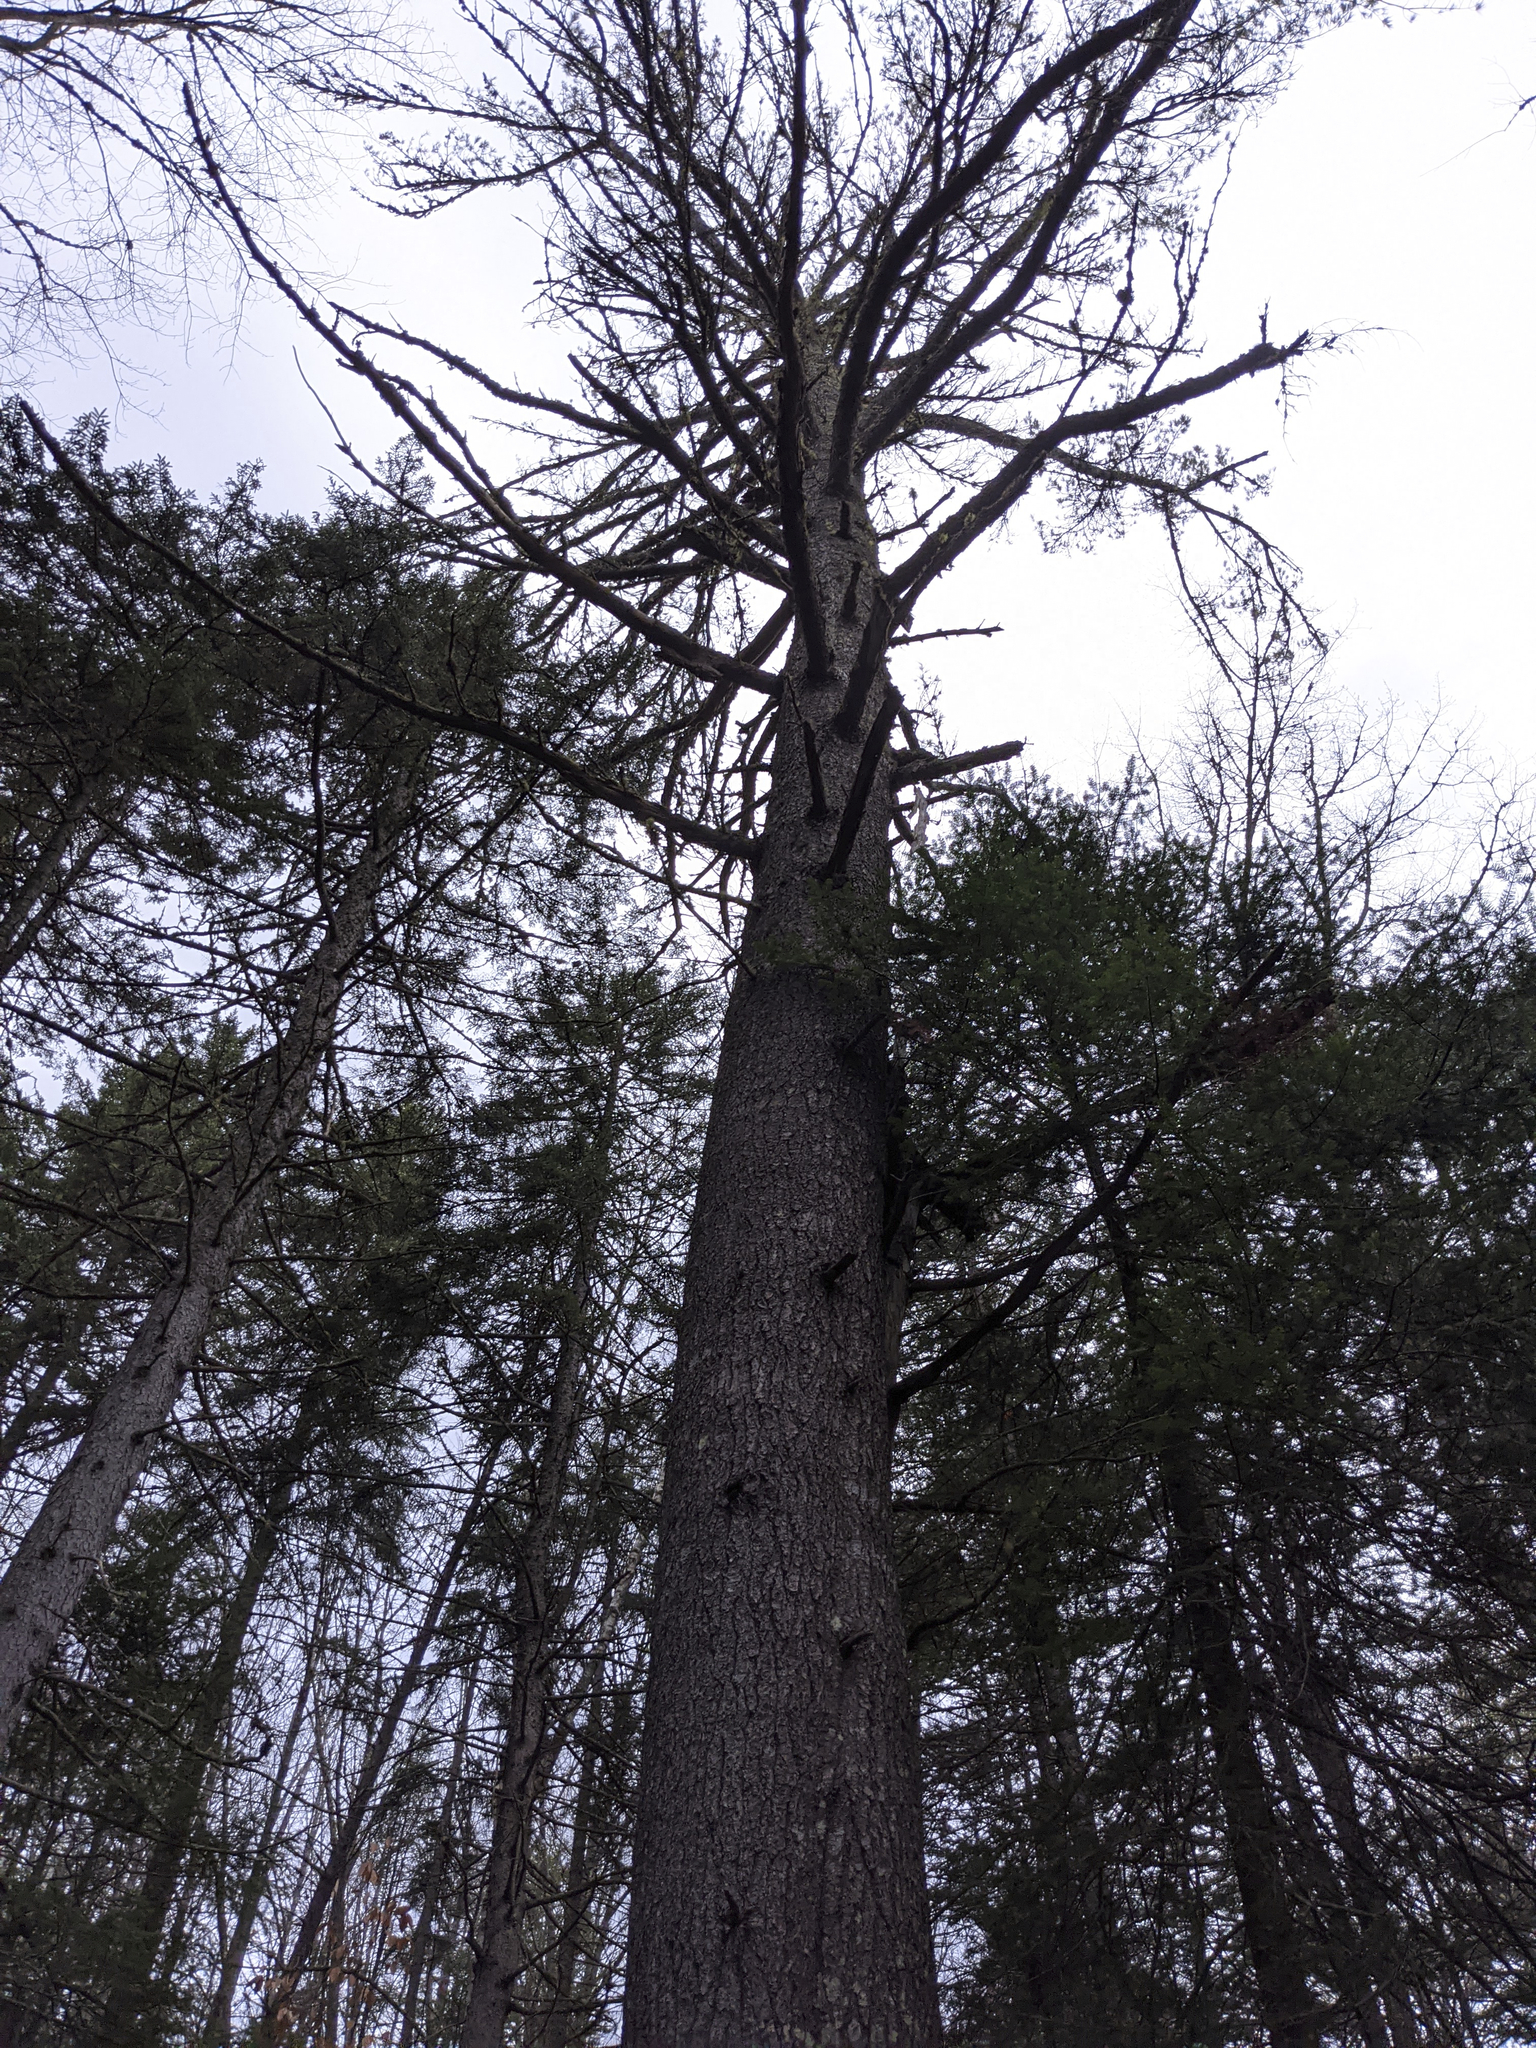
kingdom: Plantae
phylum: Tracheophyta
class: Pinopsida
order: Pinales
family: Pinaceae
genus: Pinus
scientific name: Pinus strobus
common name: Weymouth pine
